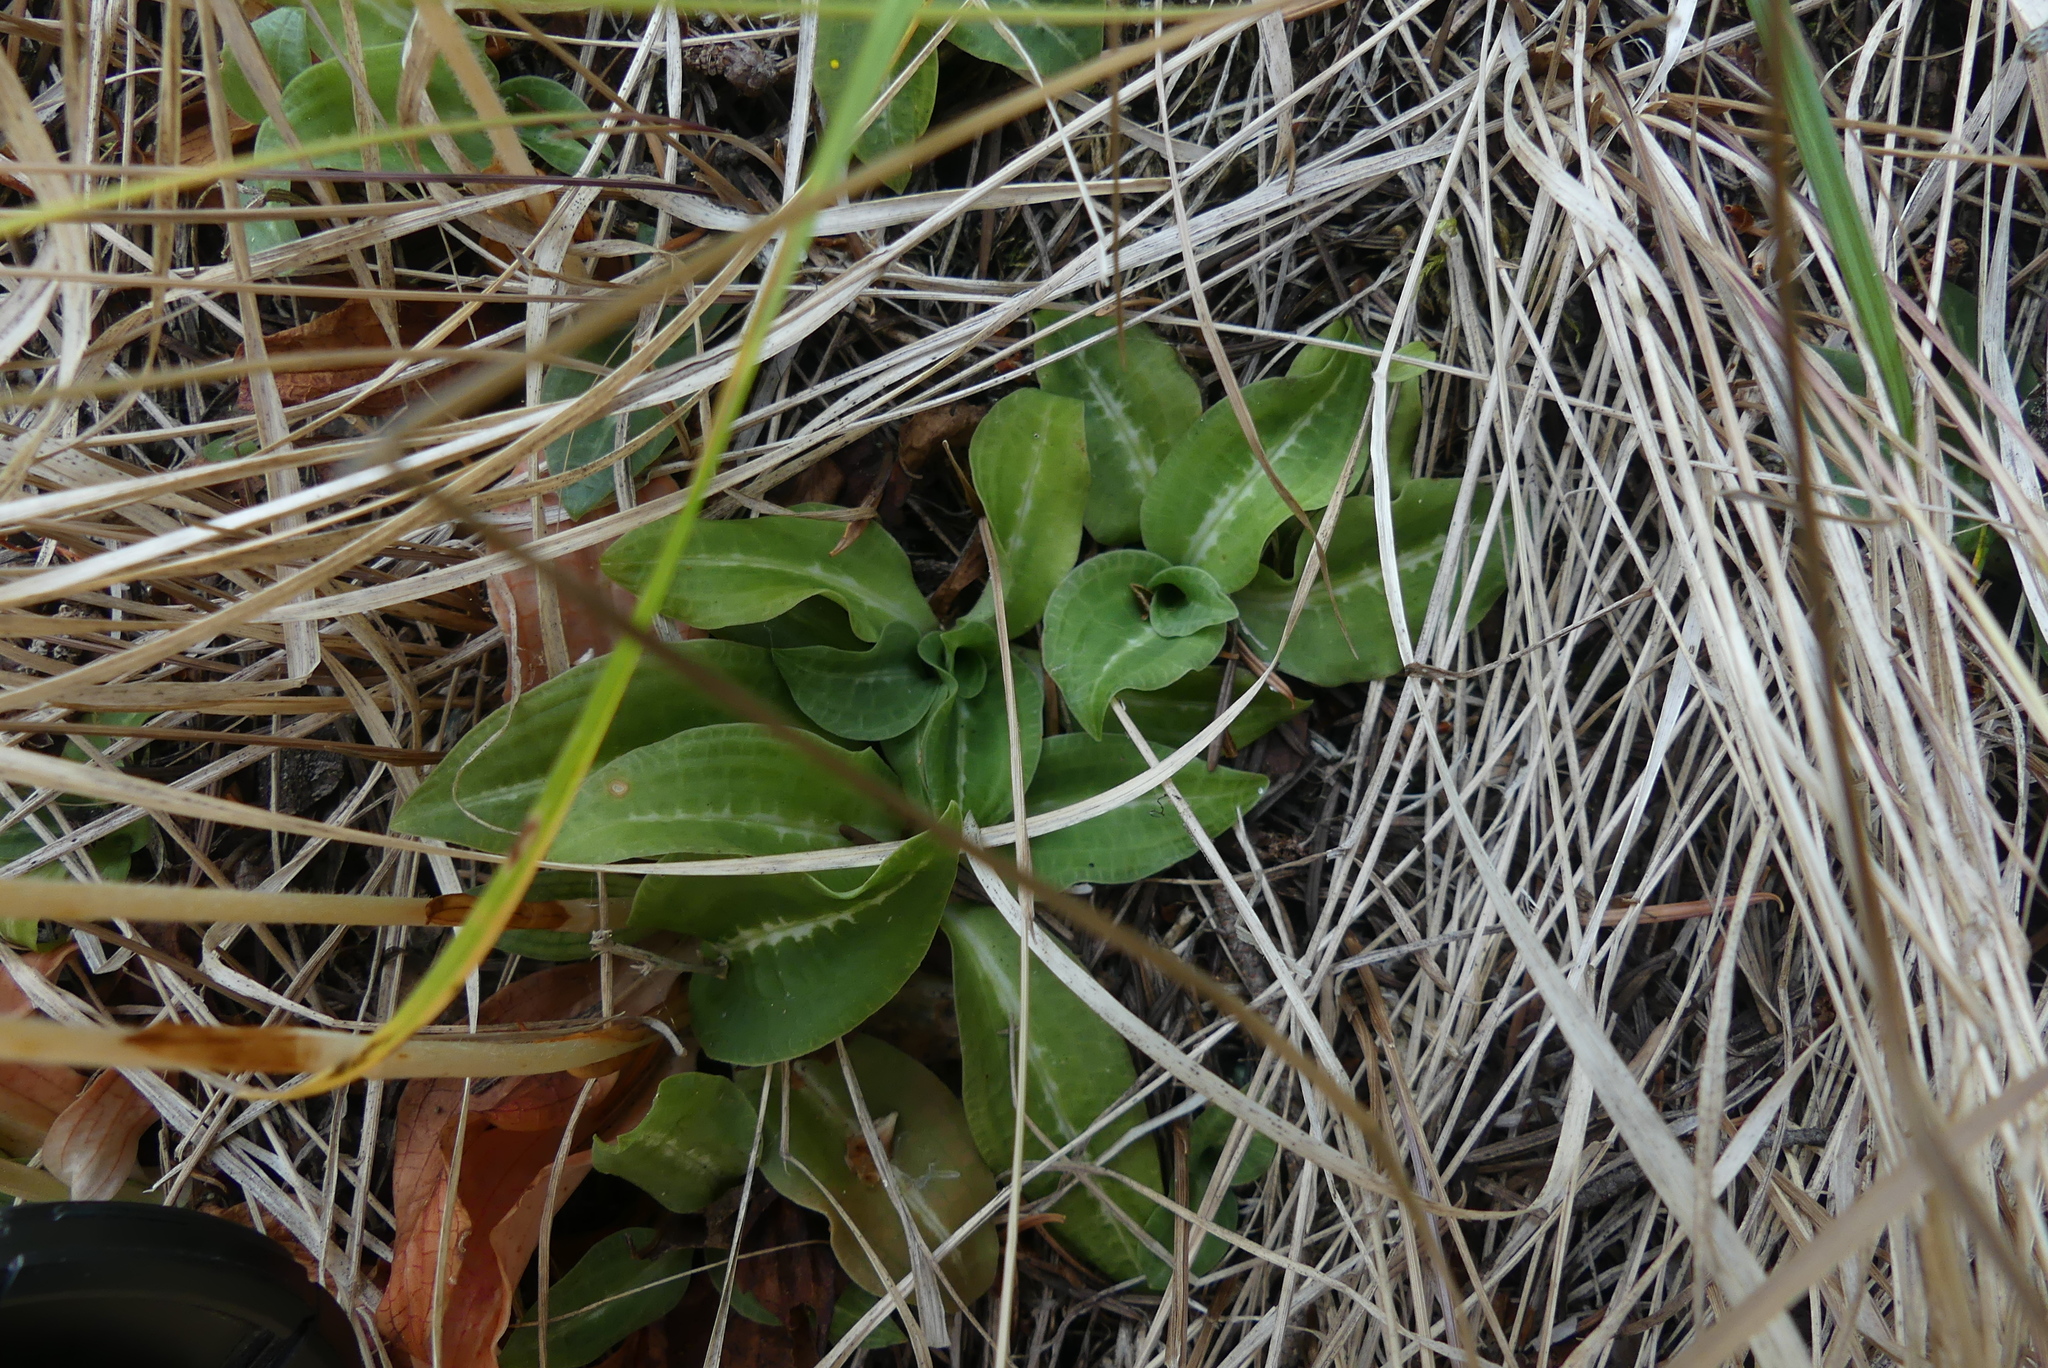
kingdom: Plantae
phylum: Tracheophyta
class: Liliopsida
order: Asparagales
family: Orchidaceae
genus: Goodyera
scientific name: Goodyera oblongifolia
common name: Giant rattlesnake-plantain
